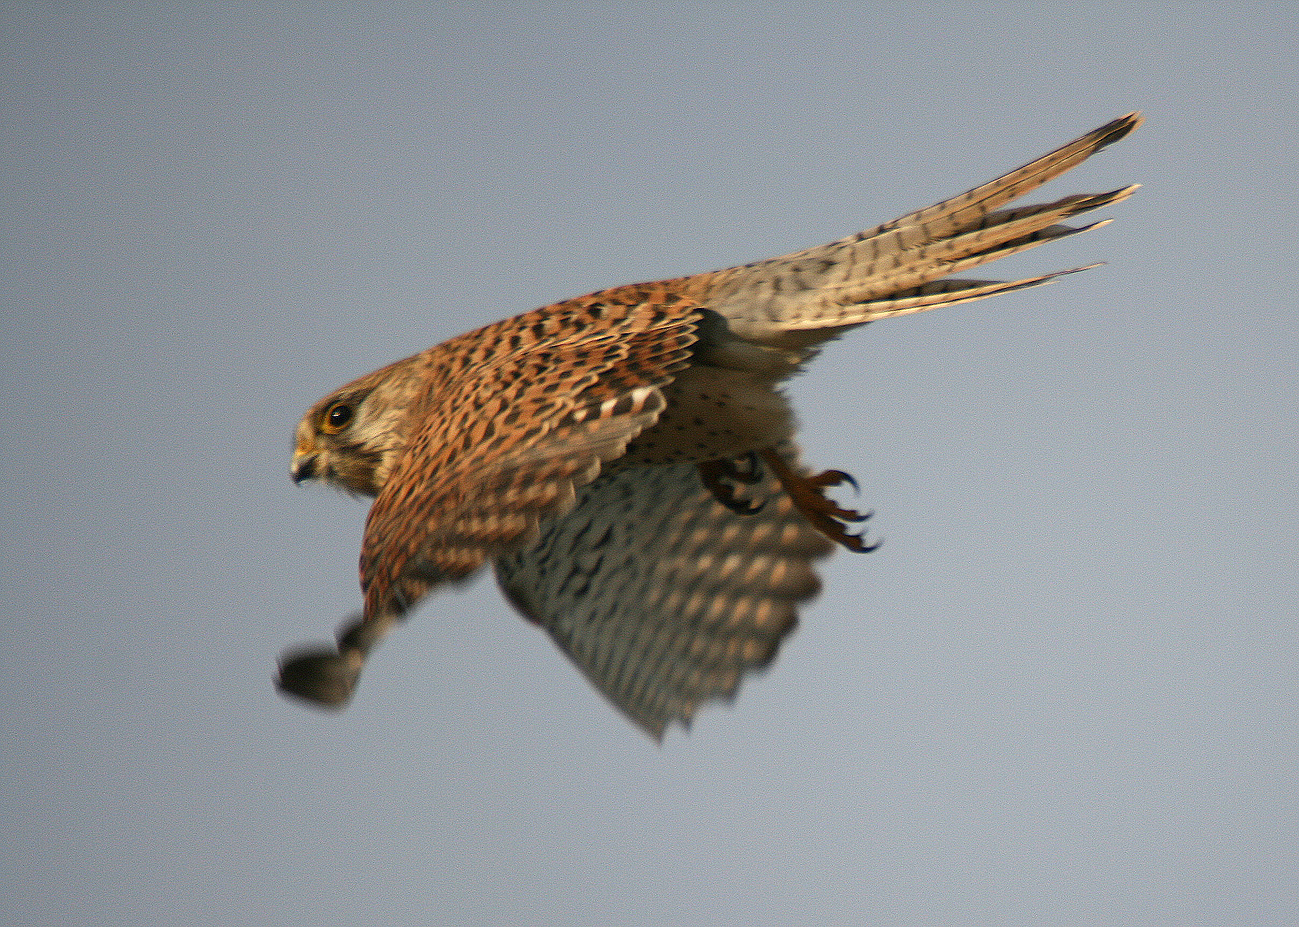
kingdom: Animalia
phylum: Chordata
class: Aves
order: Falconiformes
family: Falconidae
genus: Falco
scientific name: Falco tinnunculus
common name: Common kestrel
